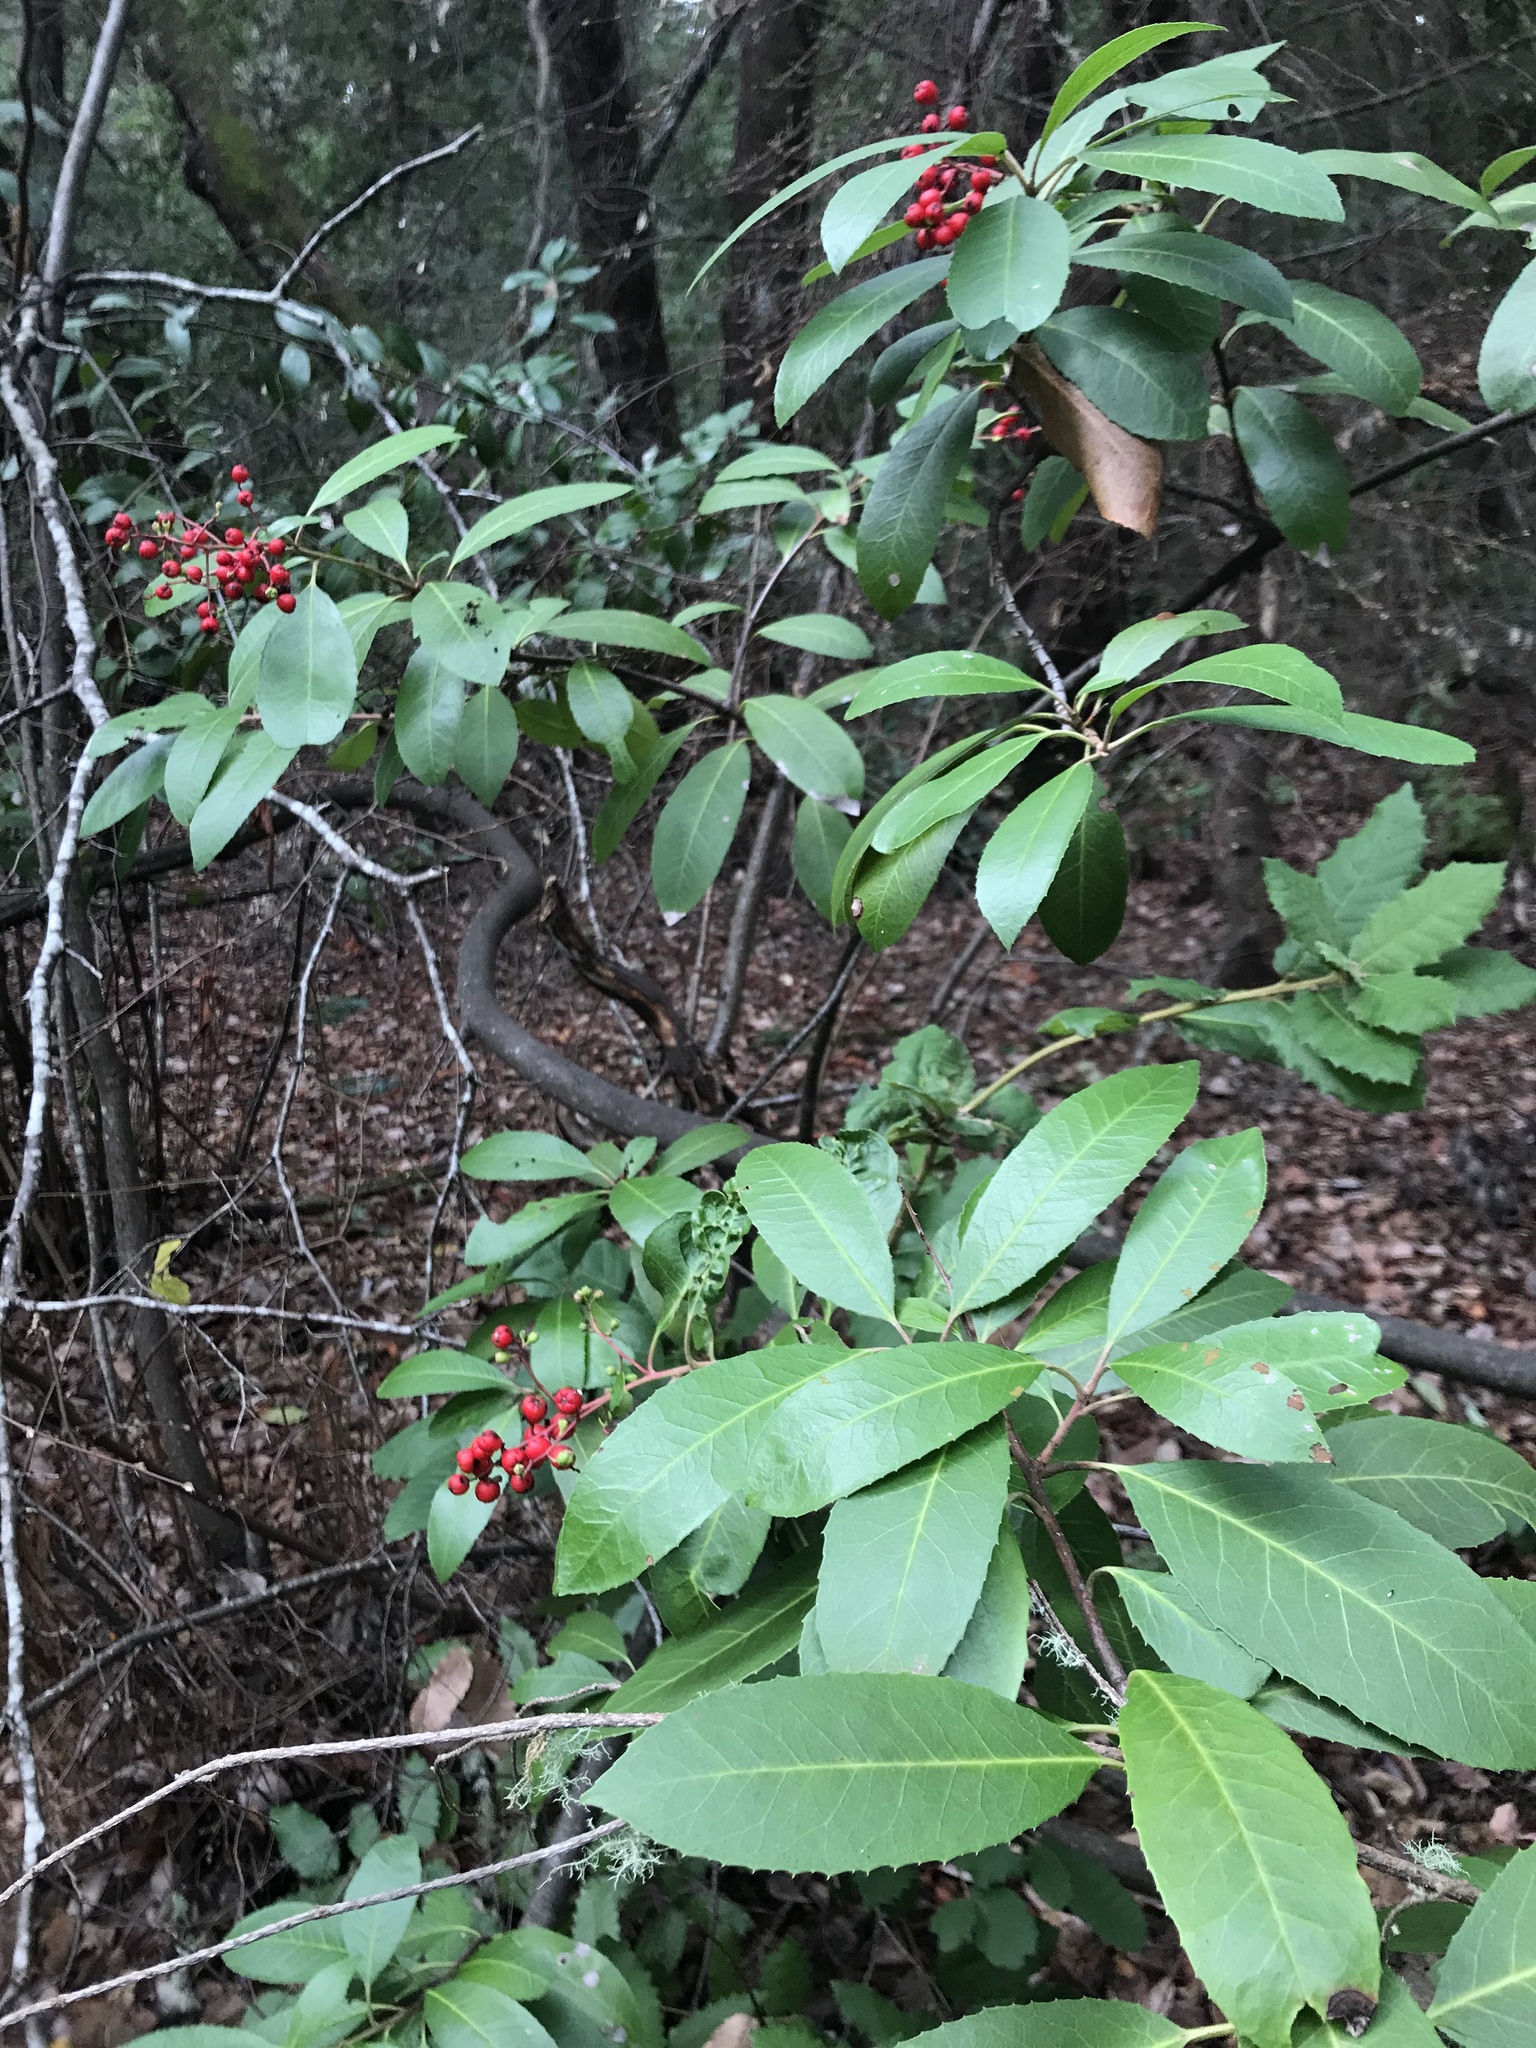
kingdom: Plantae
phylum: Tracheophyta
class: Magnoliopsida
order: Rosales
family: Rosaceae
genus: Heteromeles
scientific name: Heteromeles arbutifolia
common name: California-holly
